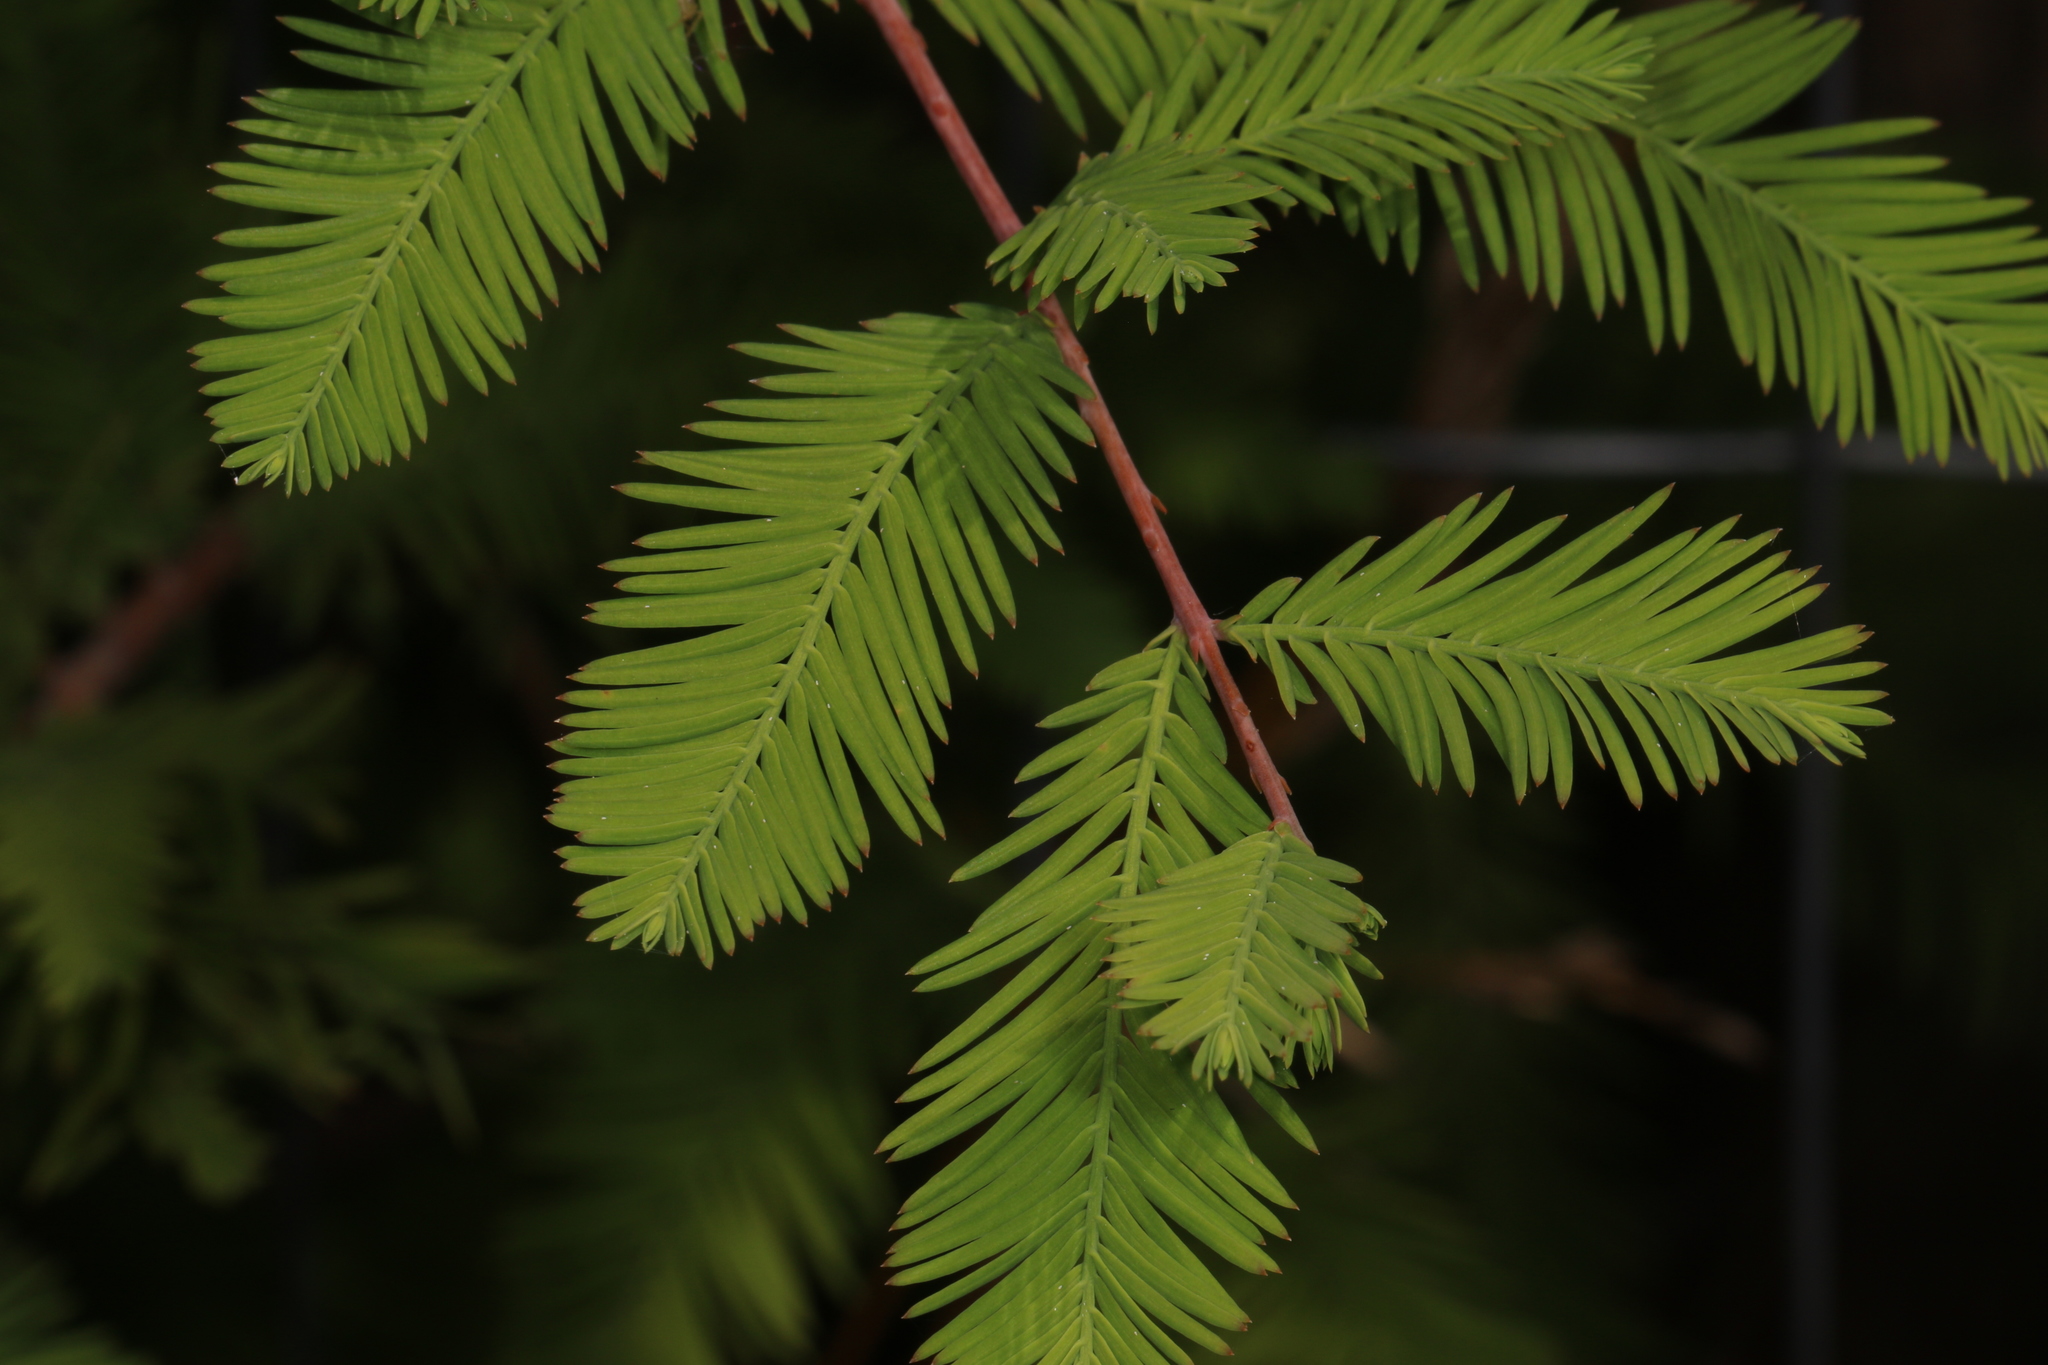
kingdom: Plantae
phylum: Tracheophyta
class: Pinopsida
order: Pinales
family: Cupressaceae
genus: Taxodium
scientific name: Taxodium distichum
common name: Bald cypress
